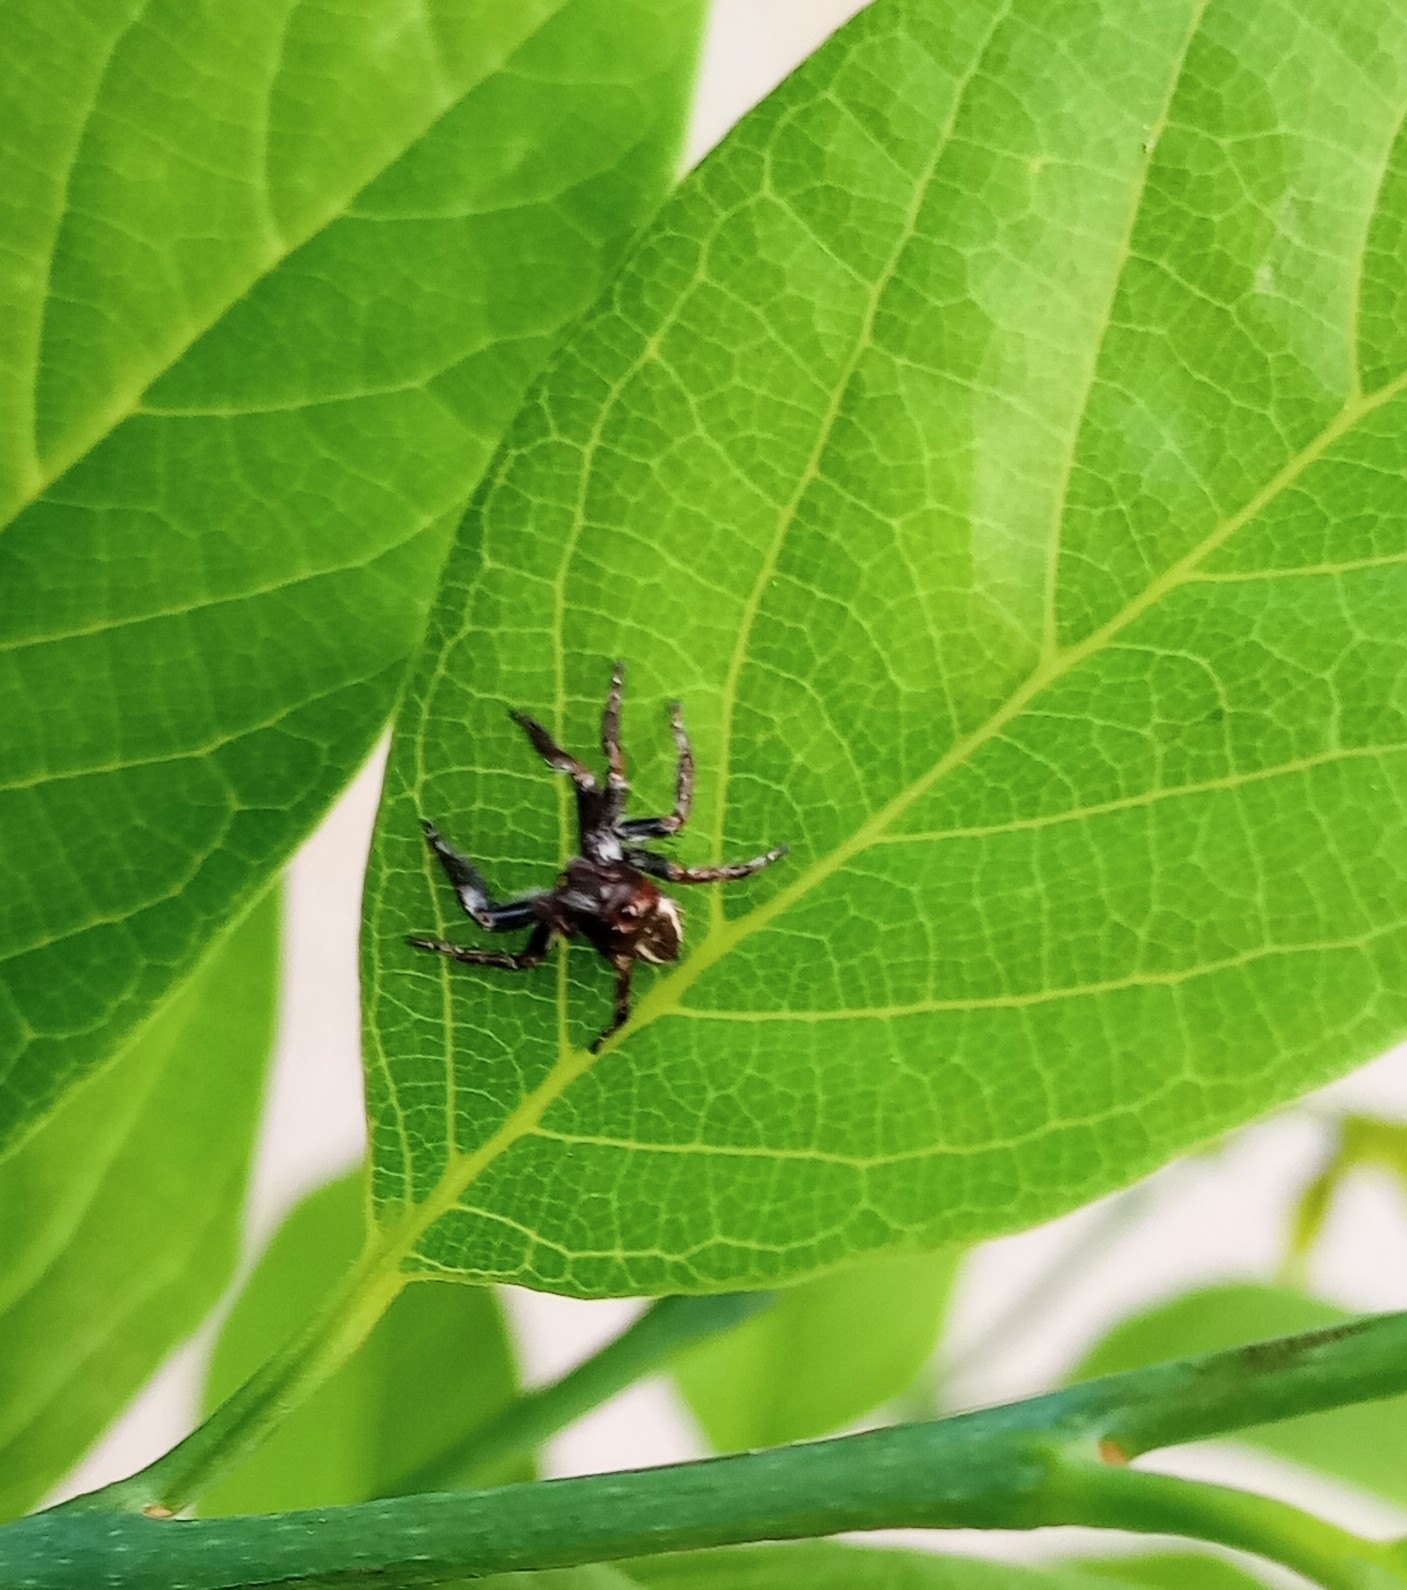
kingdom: Animalia
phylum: Arthropoda
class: Arachnida
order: Araneae
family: Salticidae
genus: Carrhotus
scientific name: Carrhotus viduus
